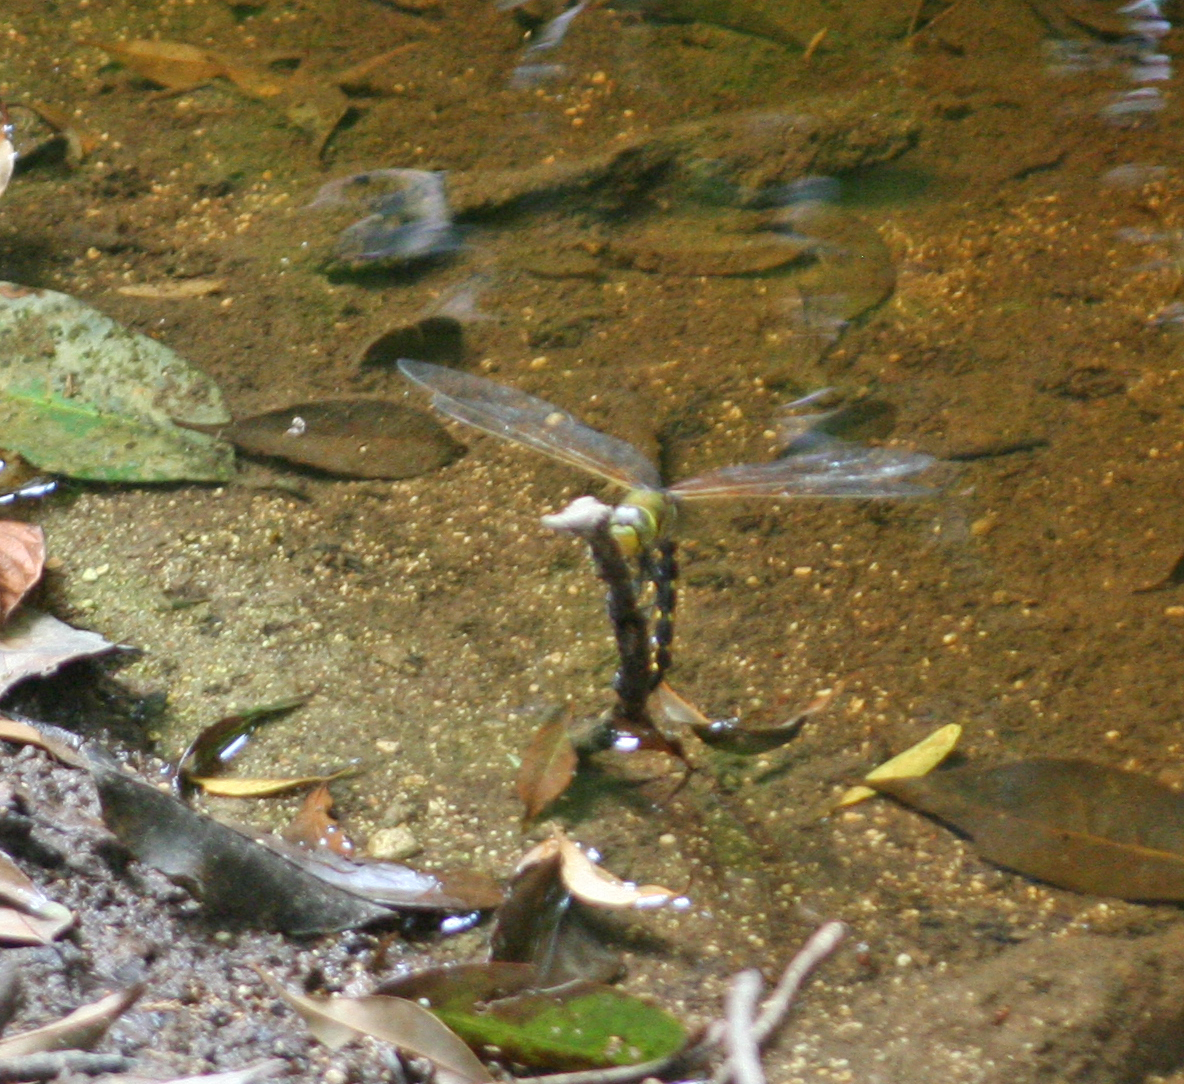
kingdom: Animalia
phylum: Arthropoda
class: Insecta
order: Odonata
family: Aeshnidae
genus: Anax
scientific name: Anax aurantiacus
